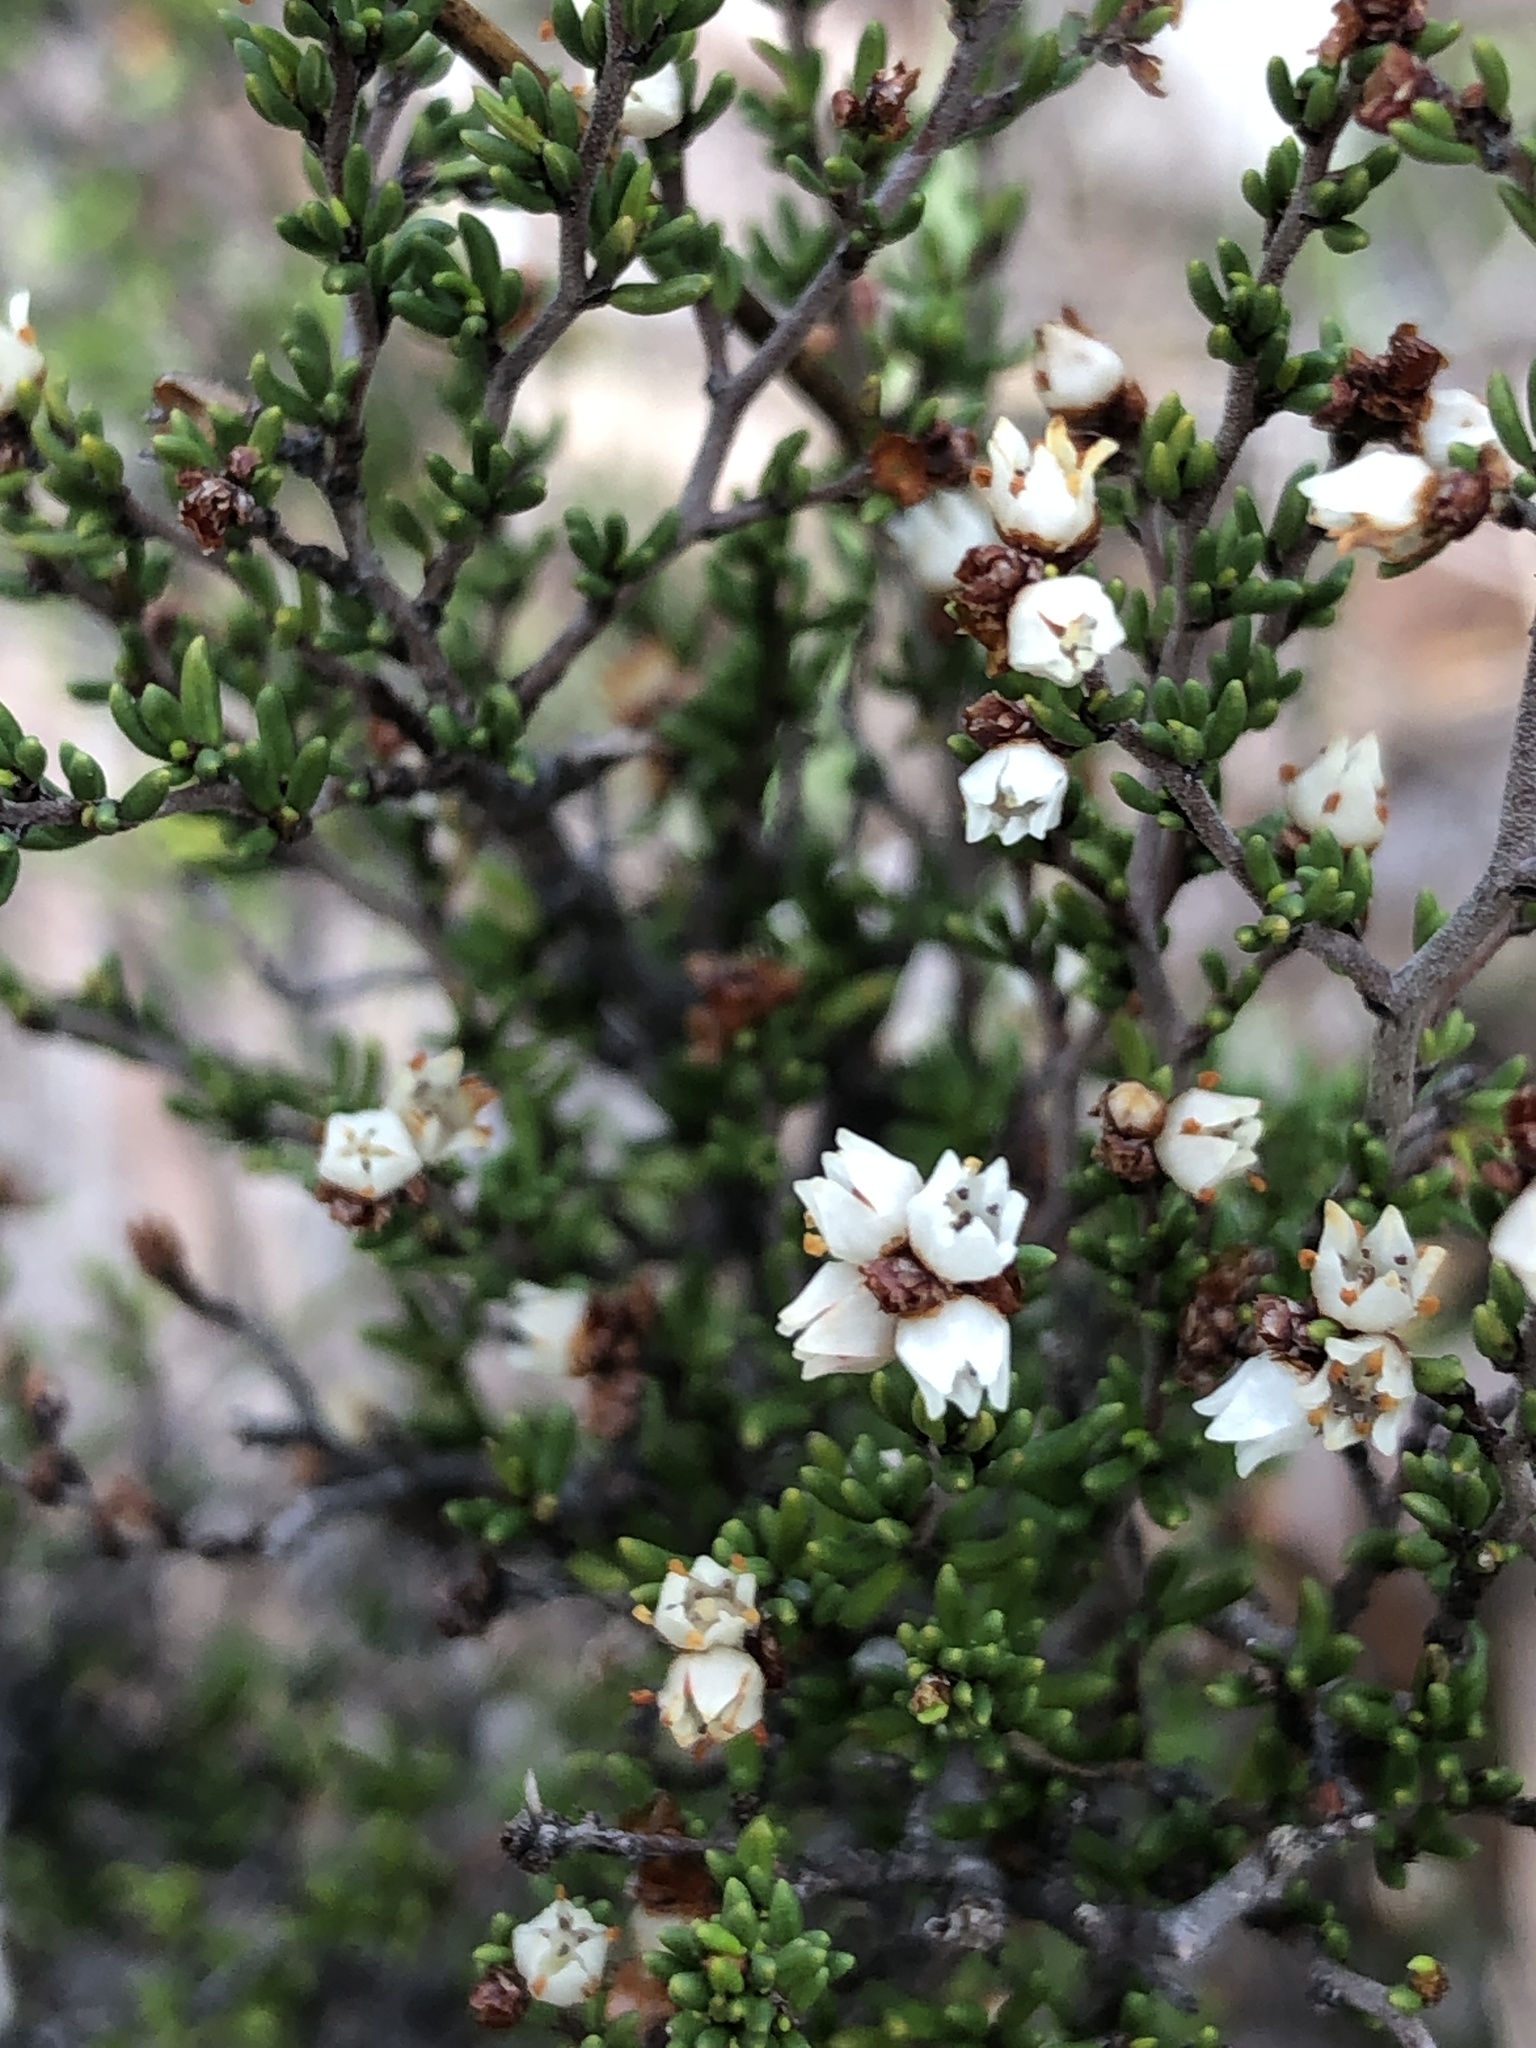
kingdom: Plantae
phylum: Tracheophyta
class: Magnoliopsida
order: Rosales
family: Rhamnaceae
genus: Cryptandra
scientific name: Cryptandra tomentosa
